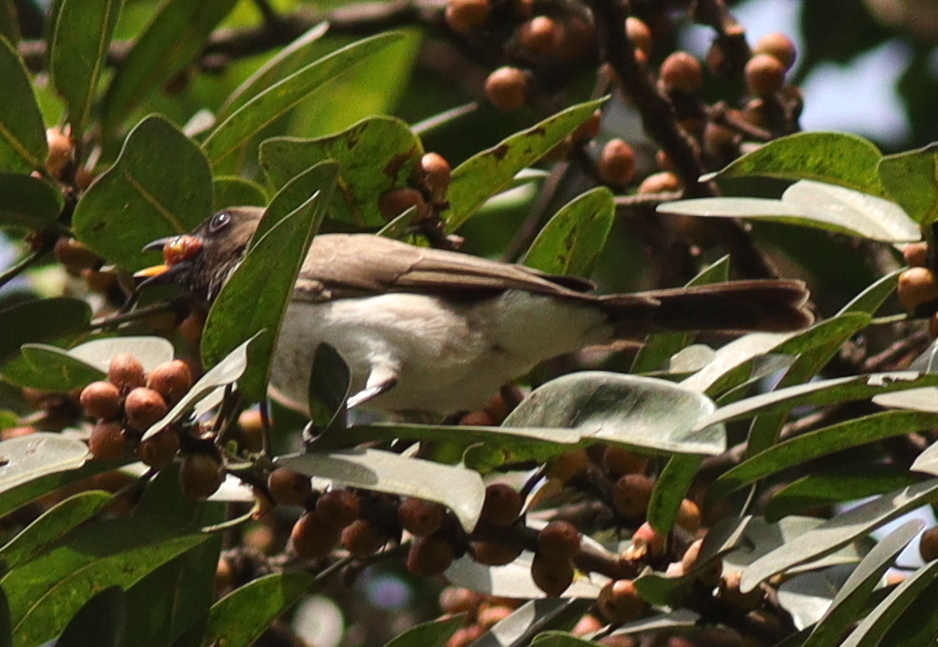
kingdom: Animalia
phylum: Chordata
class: Aves
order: Passeriformes
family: Pycnonotidae
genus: Pycnonotus
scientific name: Pycnonotus barbatus
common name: Common bulbul
